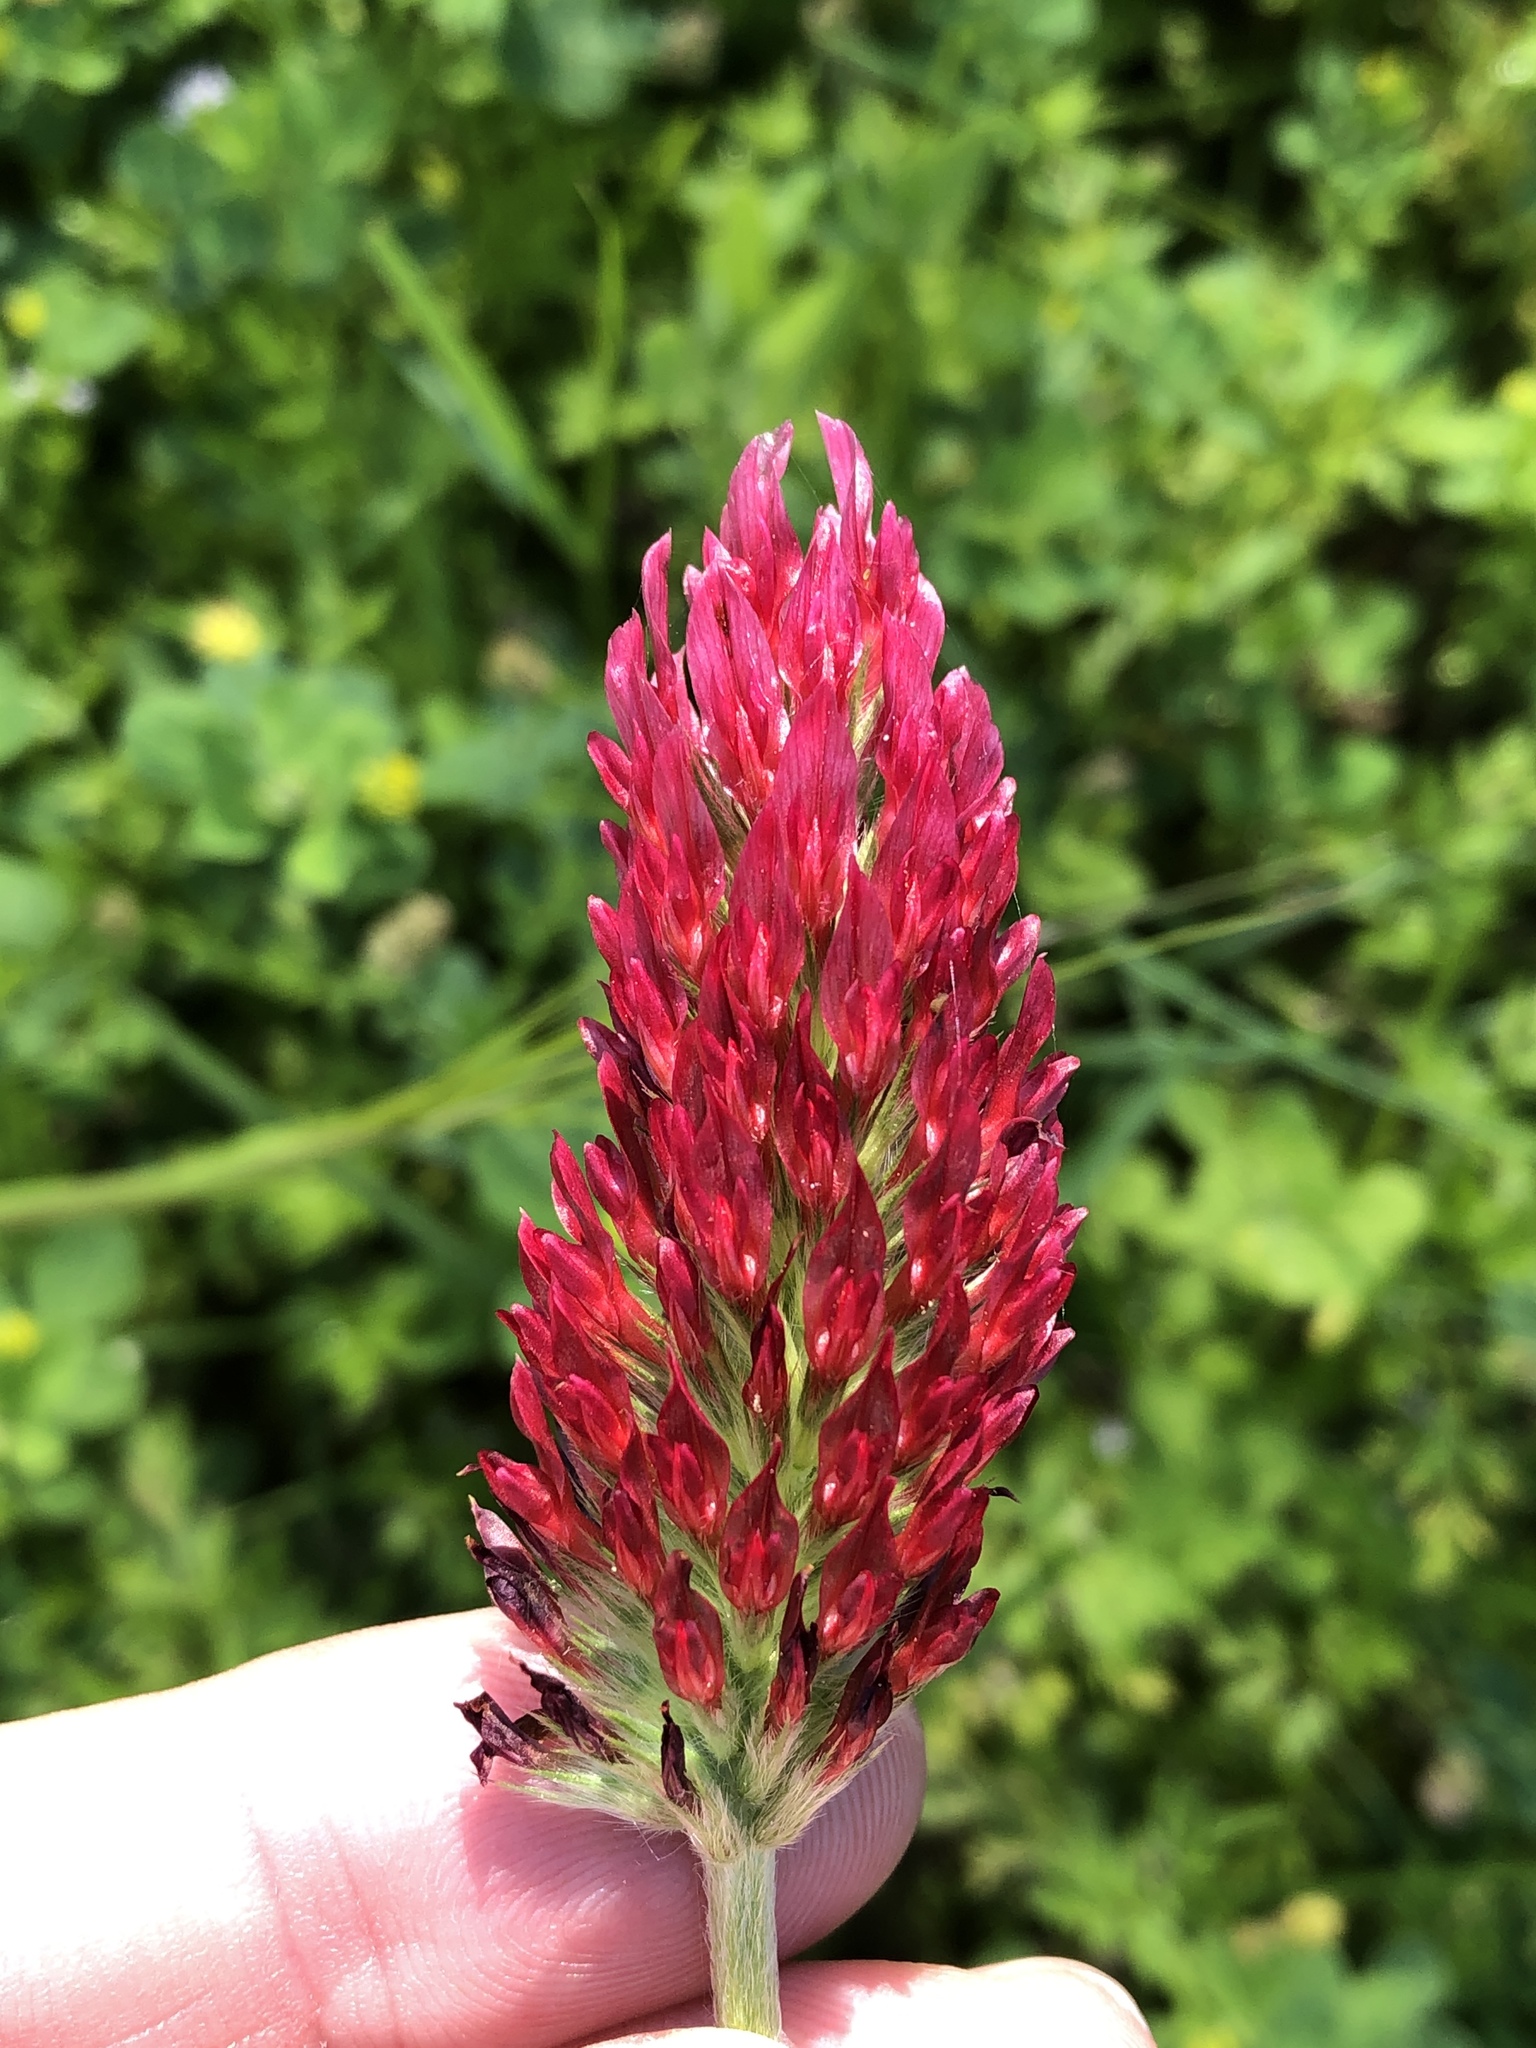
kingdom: Plantae
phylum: Tracheophyta
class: Magnoliopsida
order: Fabales
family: Fabaceae
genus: Trifolium
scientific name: Trifolium incarnatum
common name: Crimson clover
